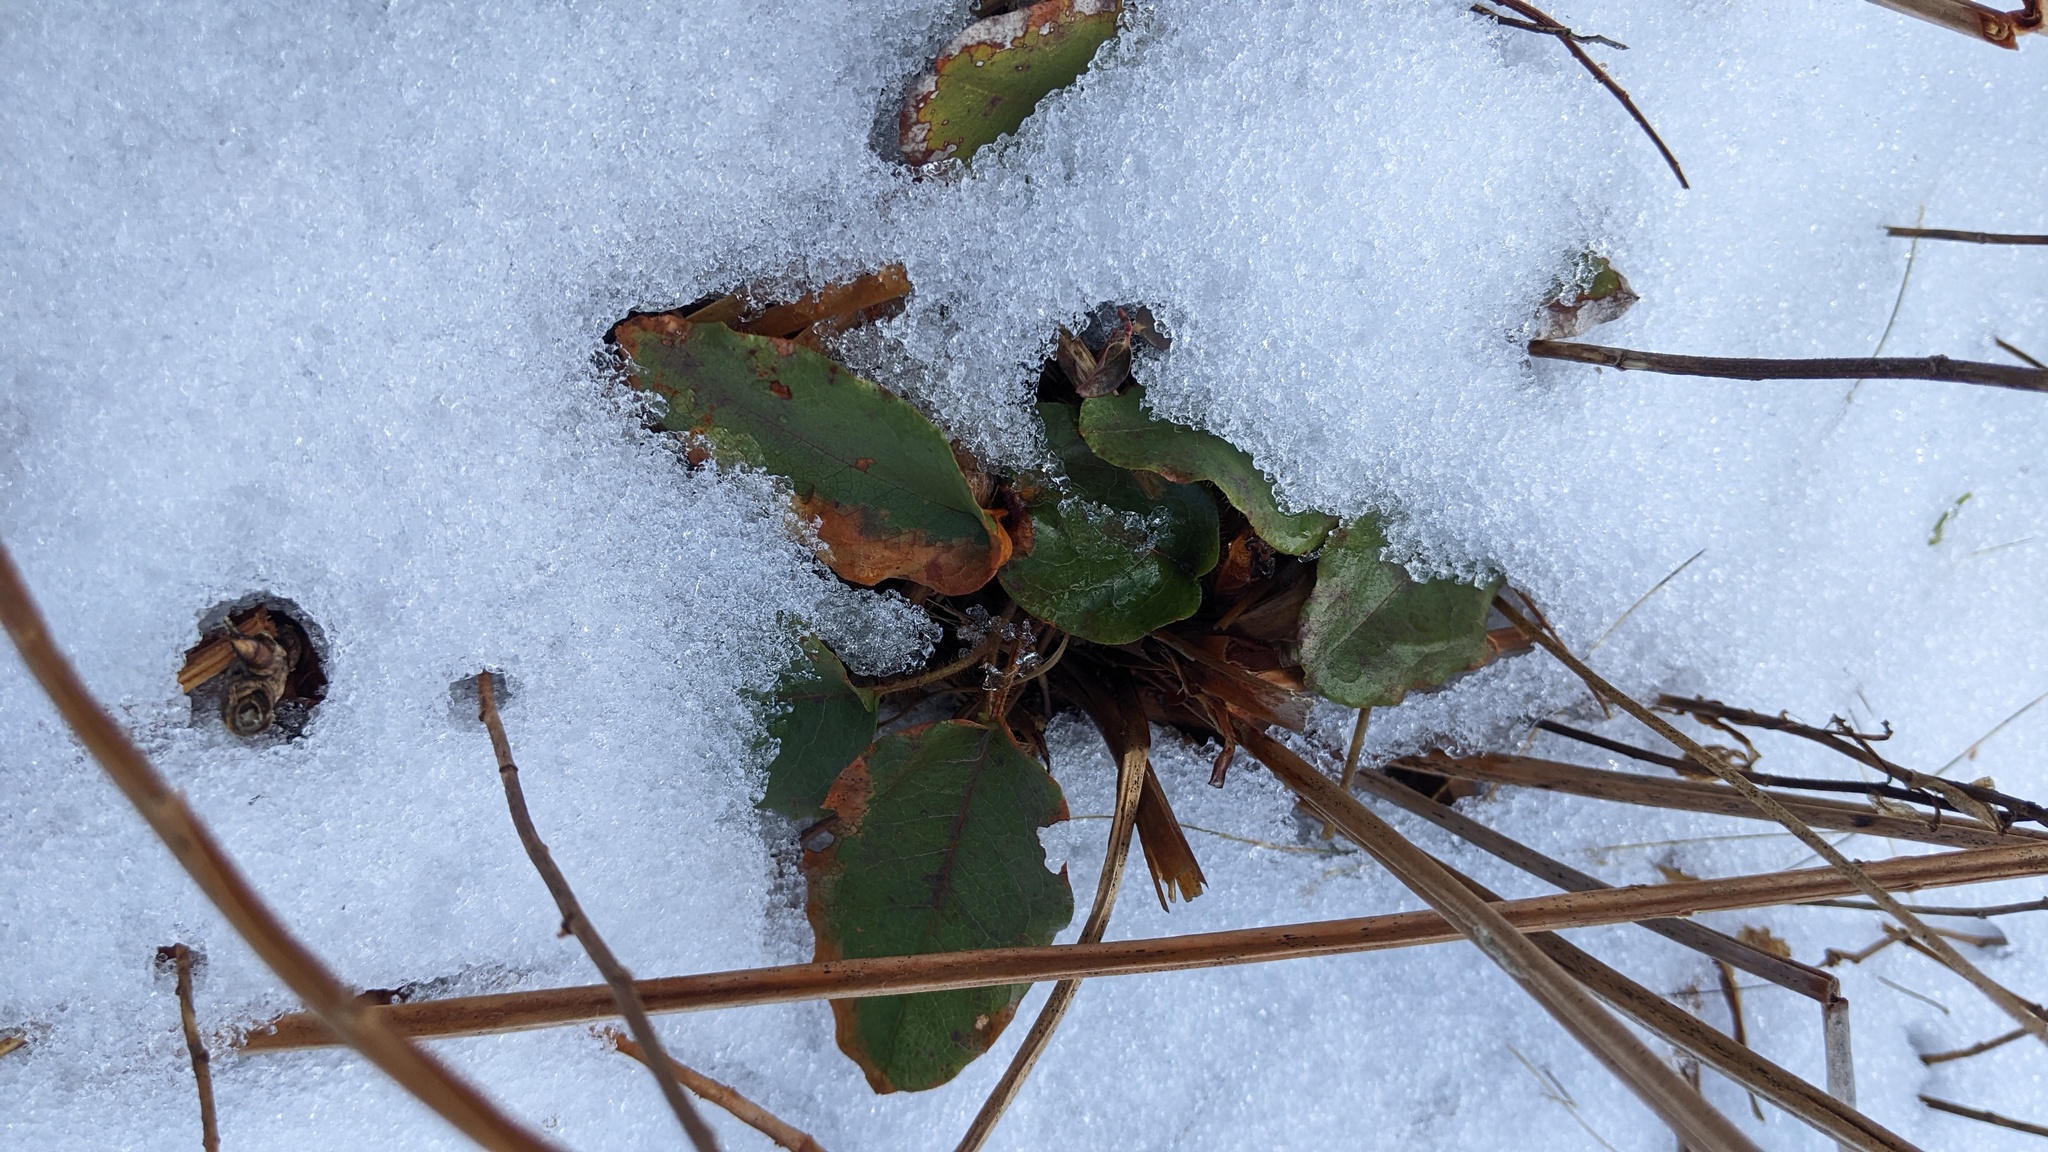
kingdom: Plantae
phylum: Tracheophyta
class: Magnoliopsida
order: Ericales
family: Ericaceae
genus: Epigaea
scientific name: Epigaea repens
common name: Gravelroot
